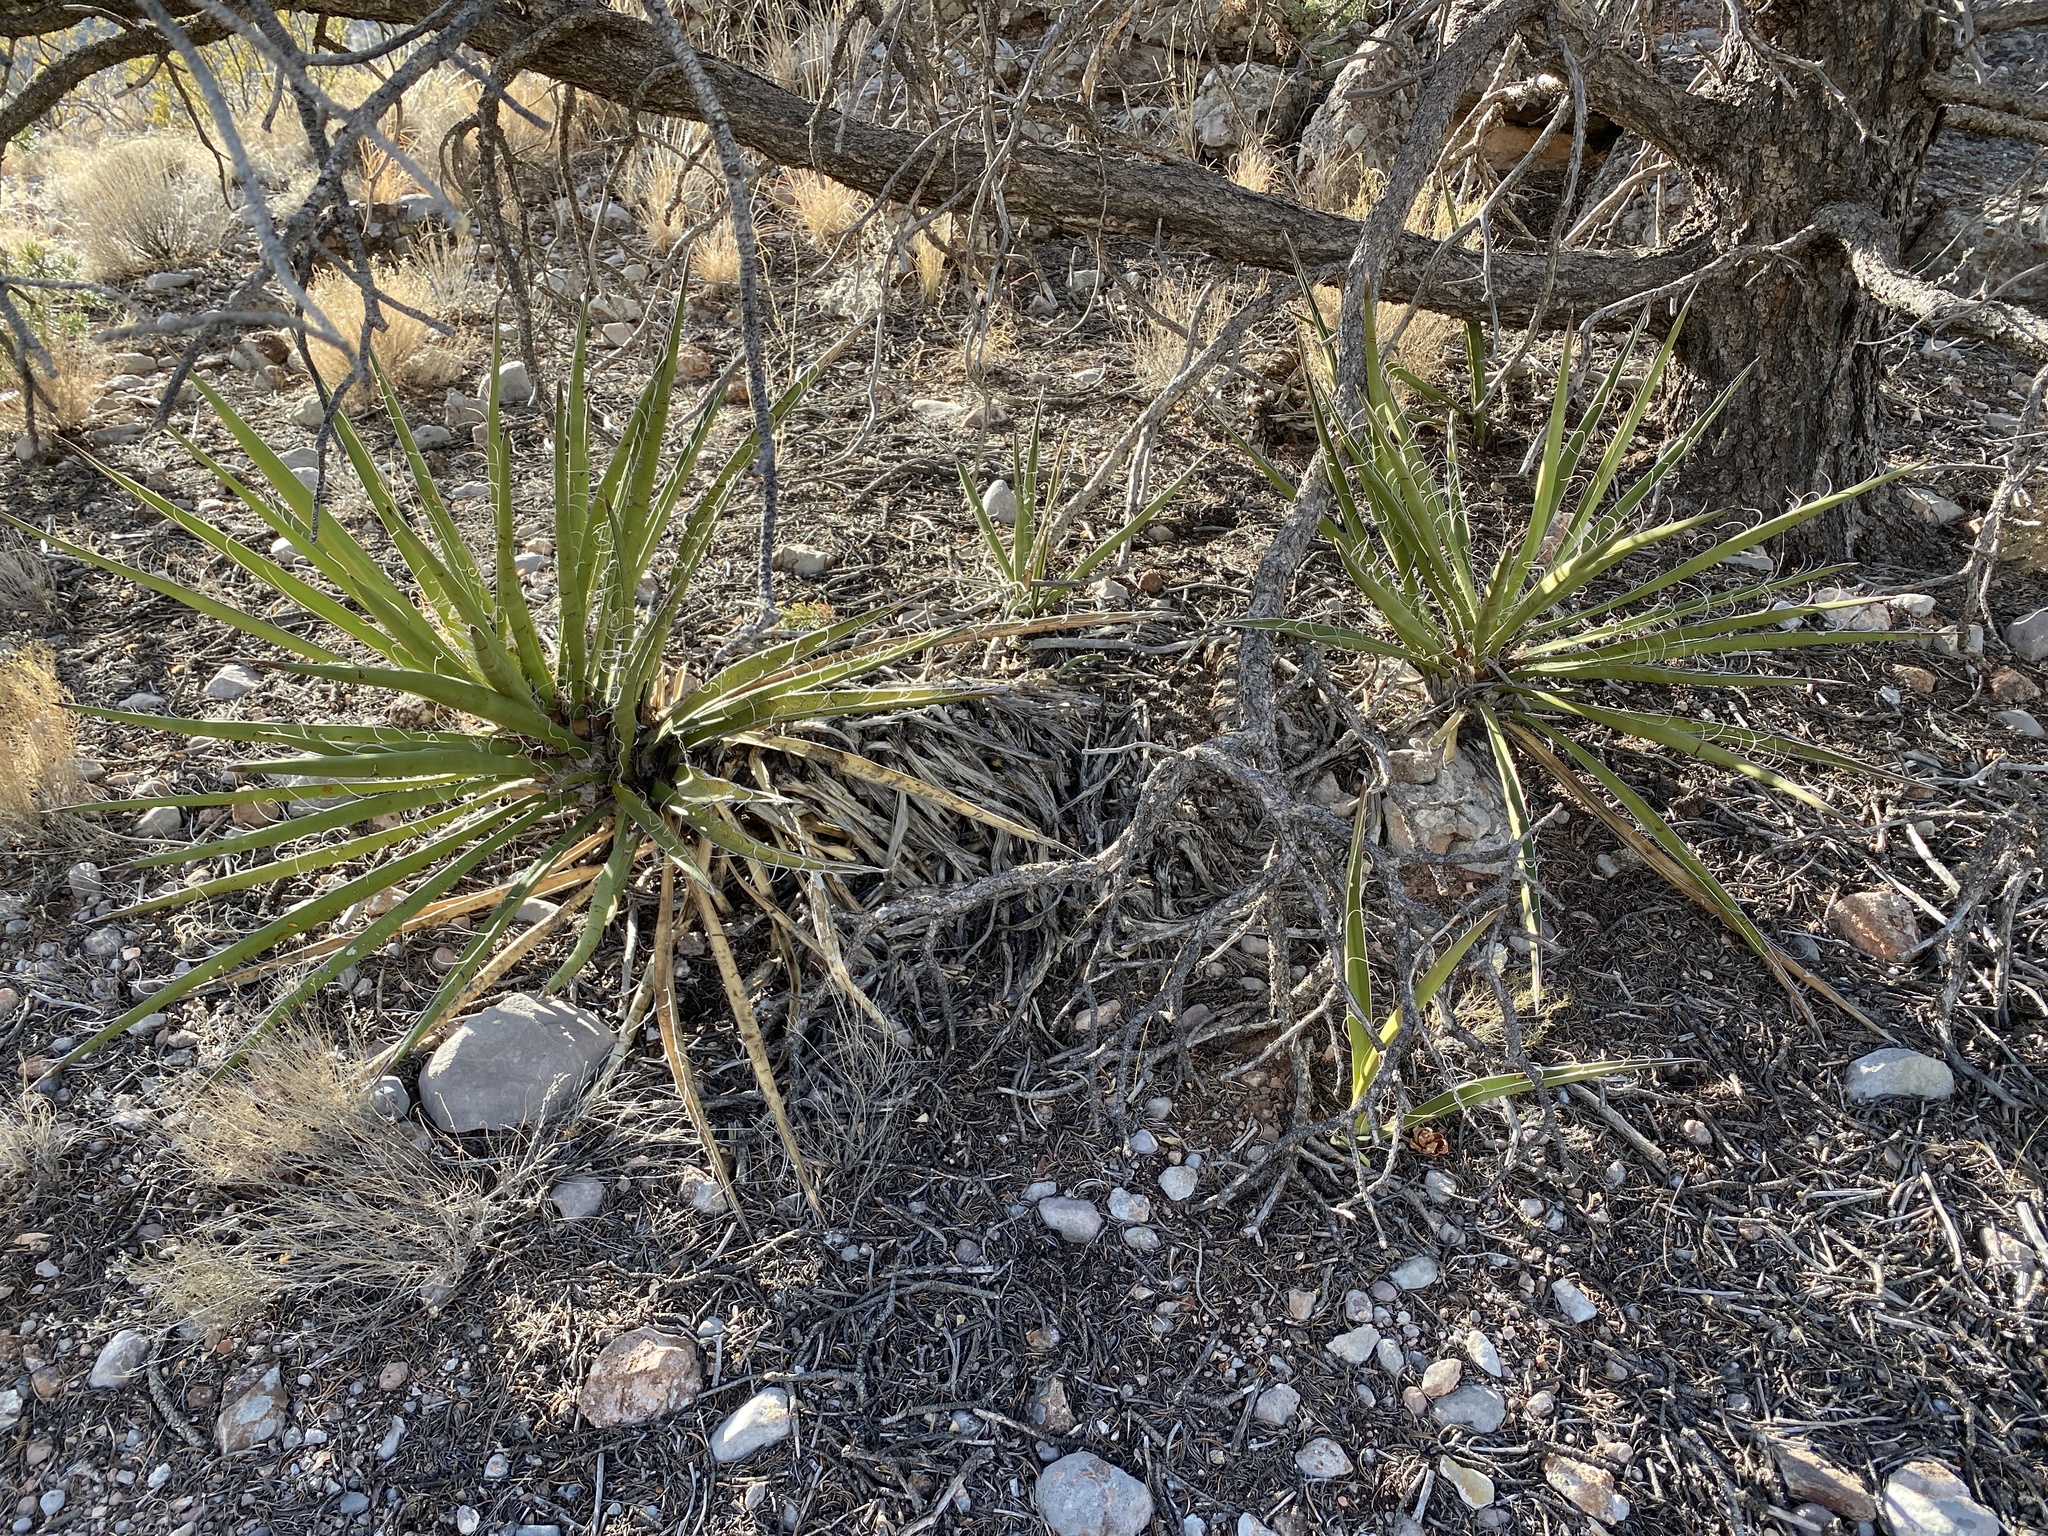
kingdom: Plantae
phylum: Tracheophyta
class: Liliopsida
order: Asparagales
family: Asparagaceae
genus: Yucca
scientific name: Yucca baccata
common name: Banana yucca
